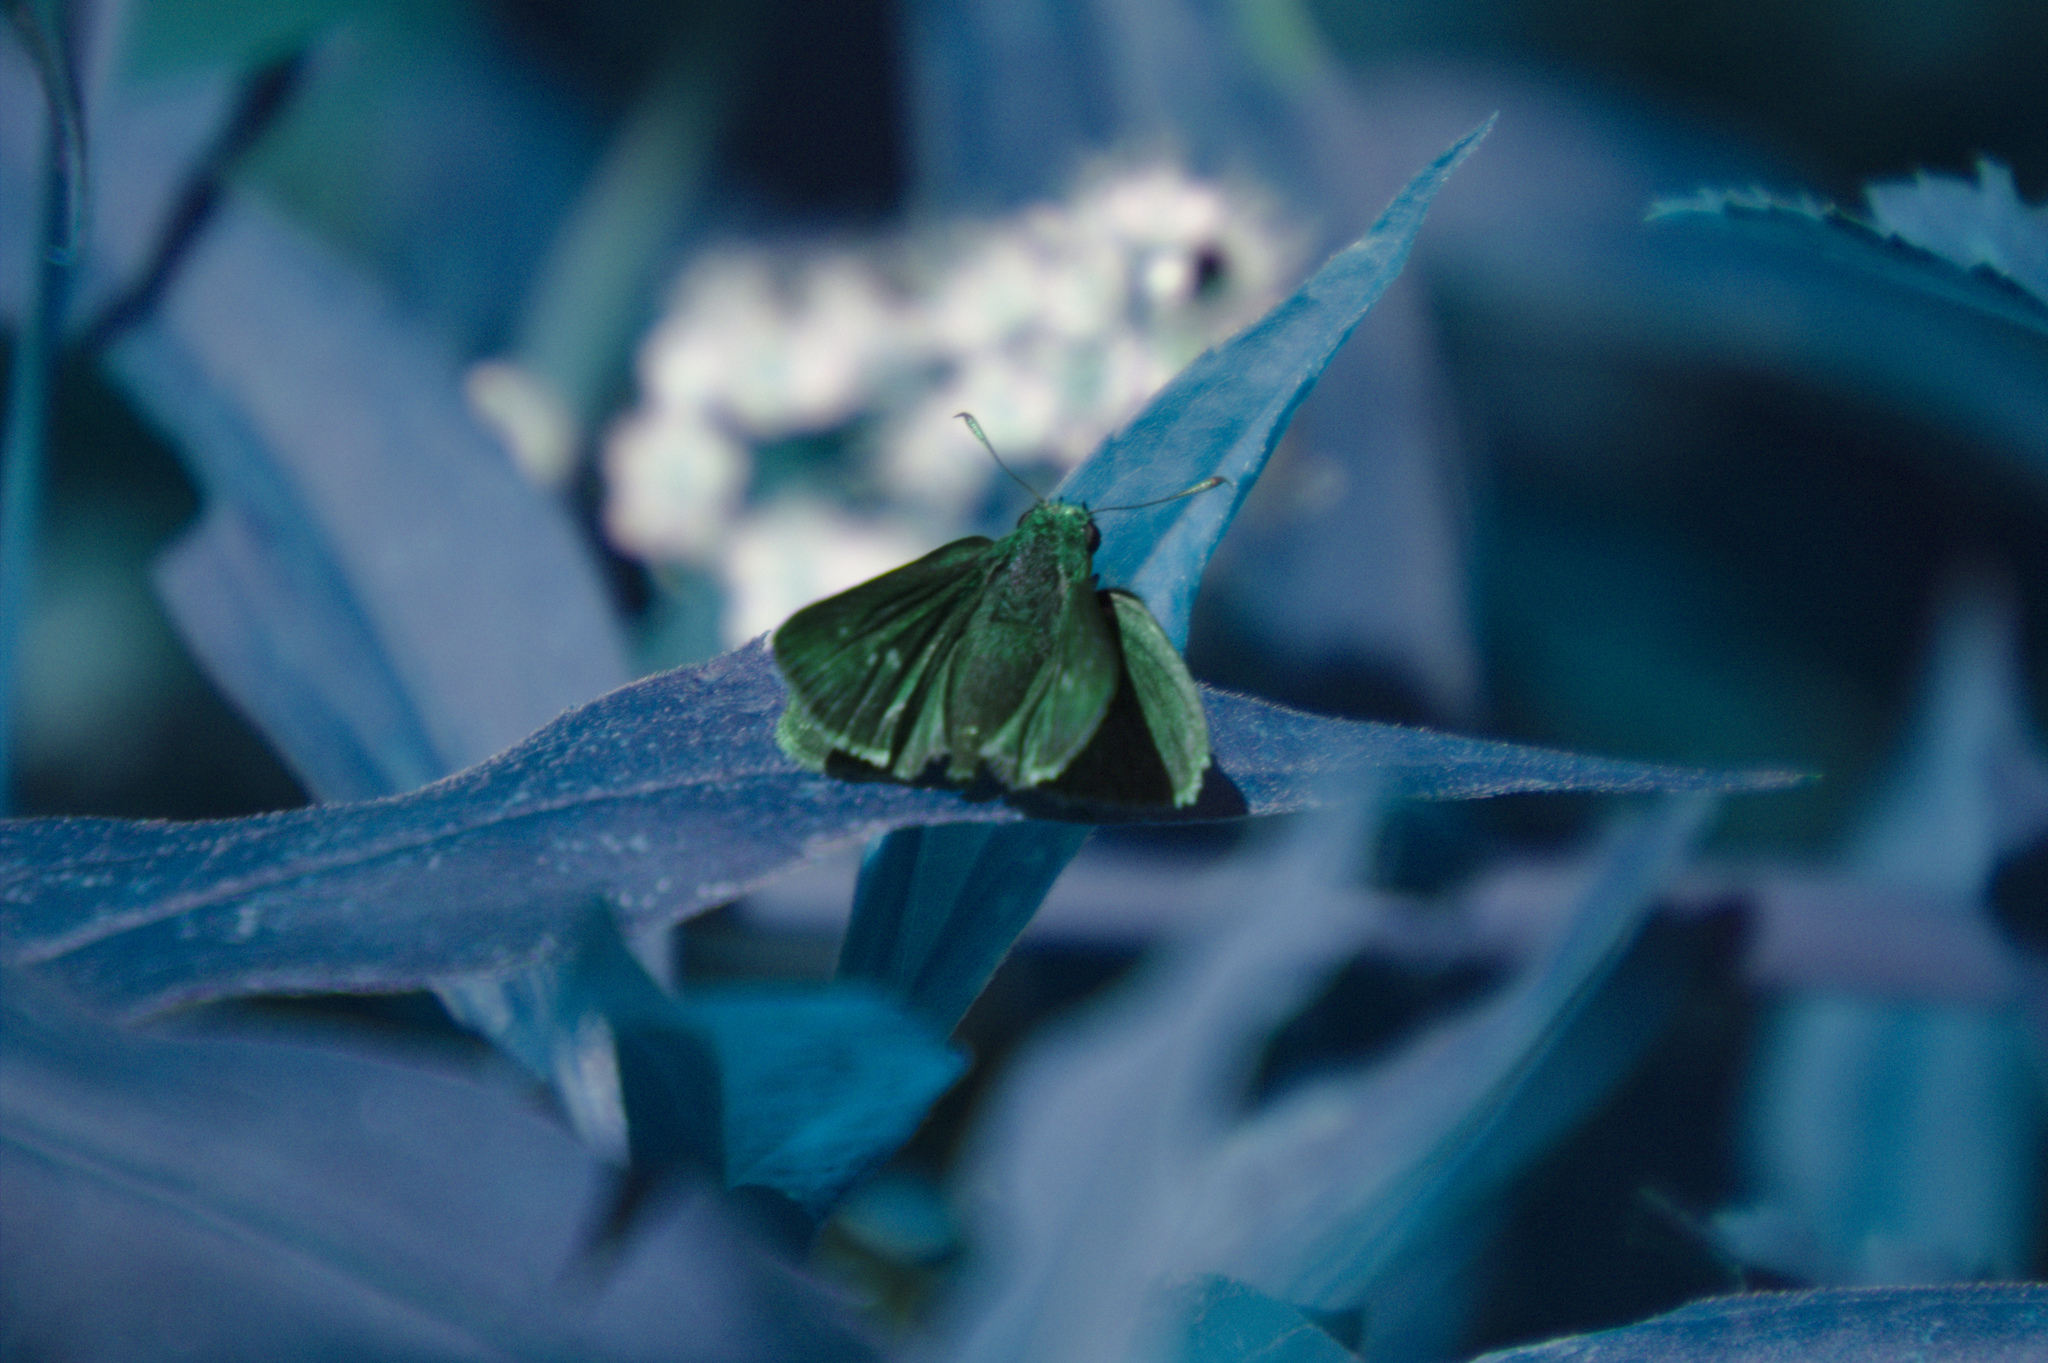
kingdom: Animalia
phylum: Arthropoda
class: Insecta
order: Lepidoptera
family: Hesperiidae
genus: Euphyes
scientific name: Euphyes vestris
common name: Dun skipper
